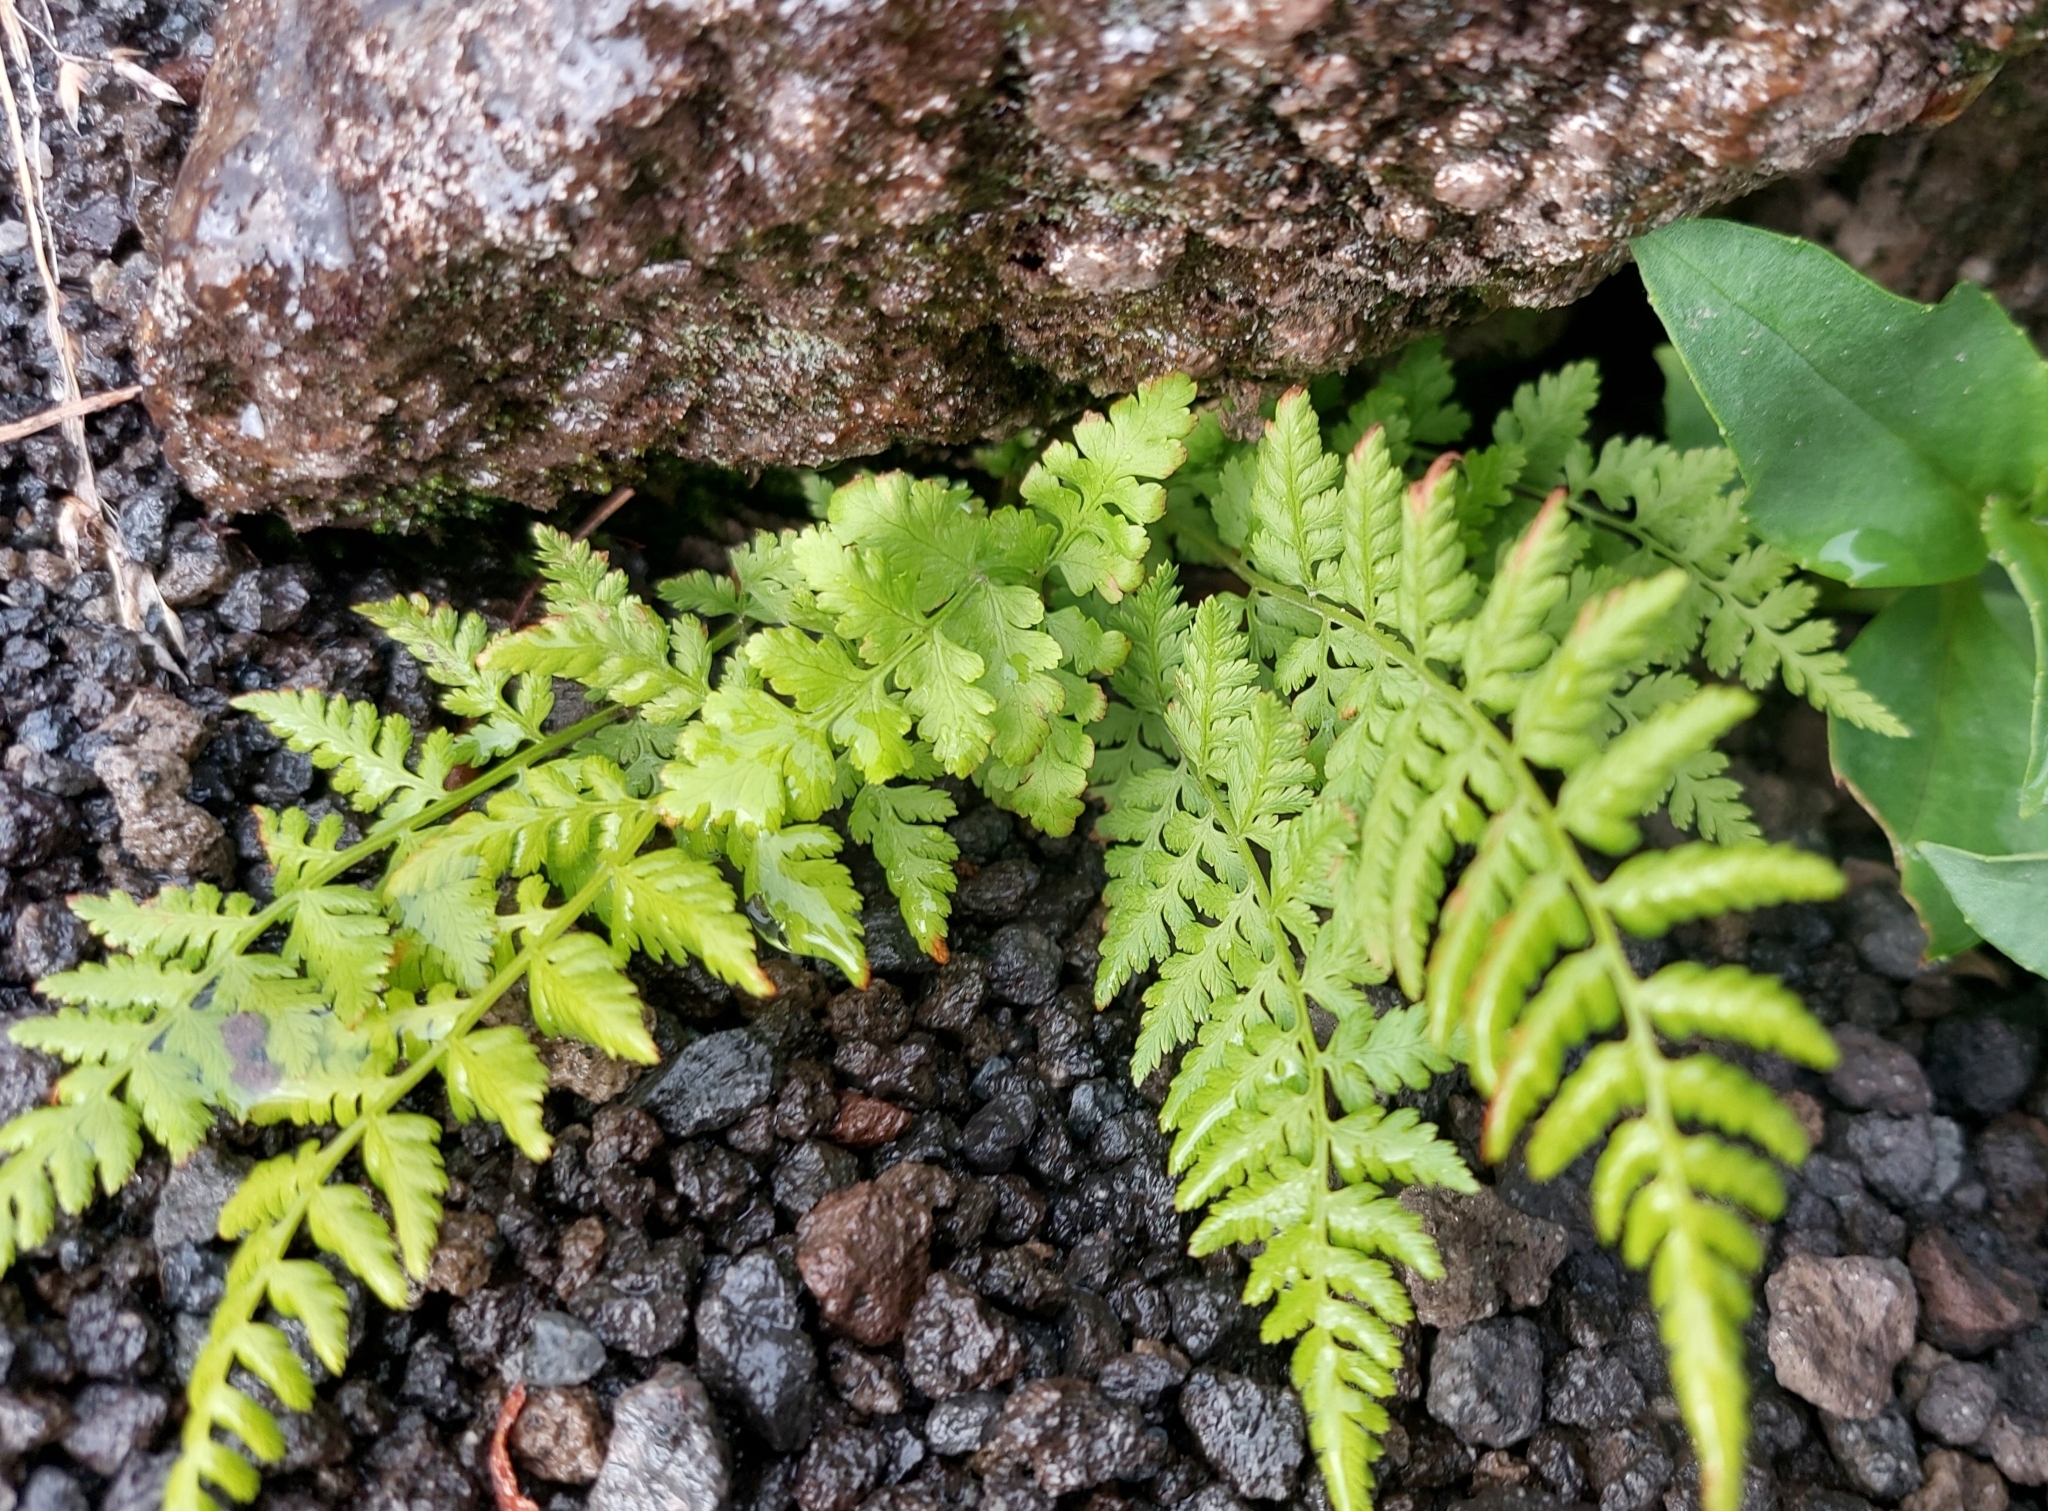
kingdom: Plantae
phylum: Tracheophyta
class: Polypodiopsida
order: Polypodiales
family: Cystopteridaceae
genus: Cystopteris
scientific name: Cystopteris fragilis
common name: Brittle bladder fern
